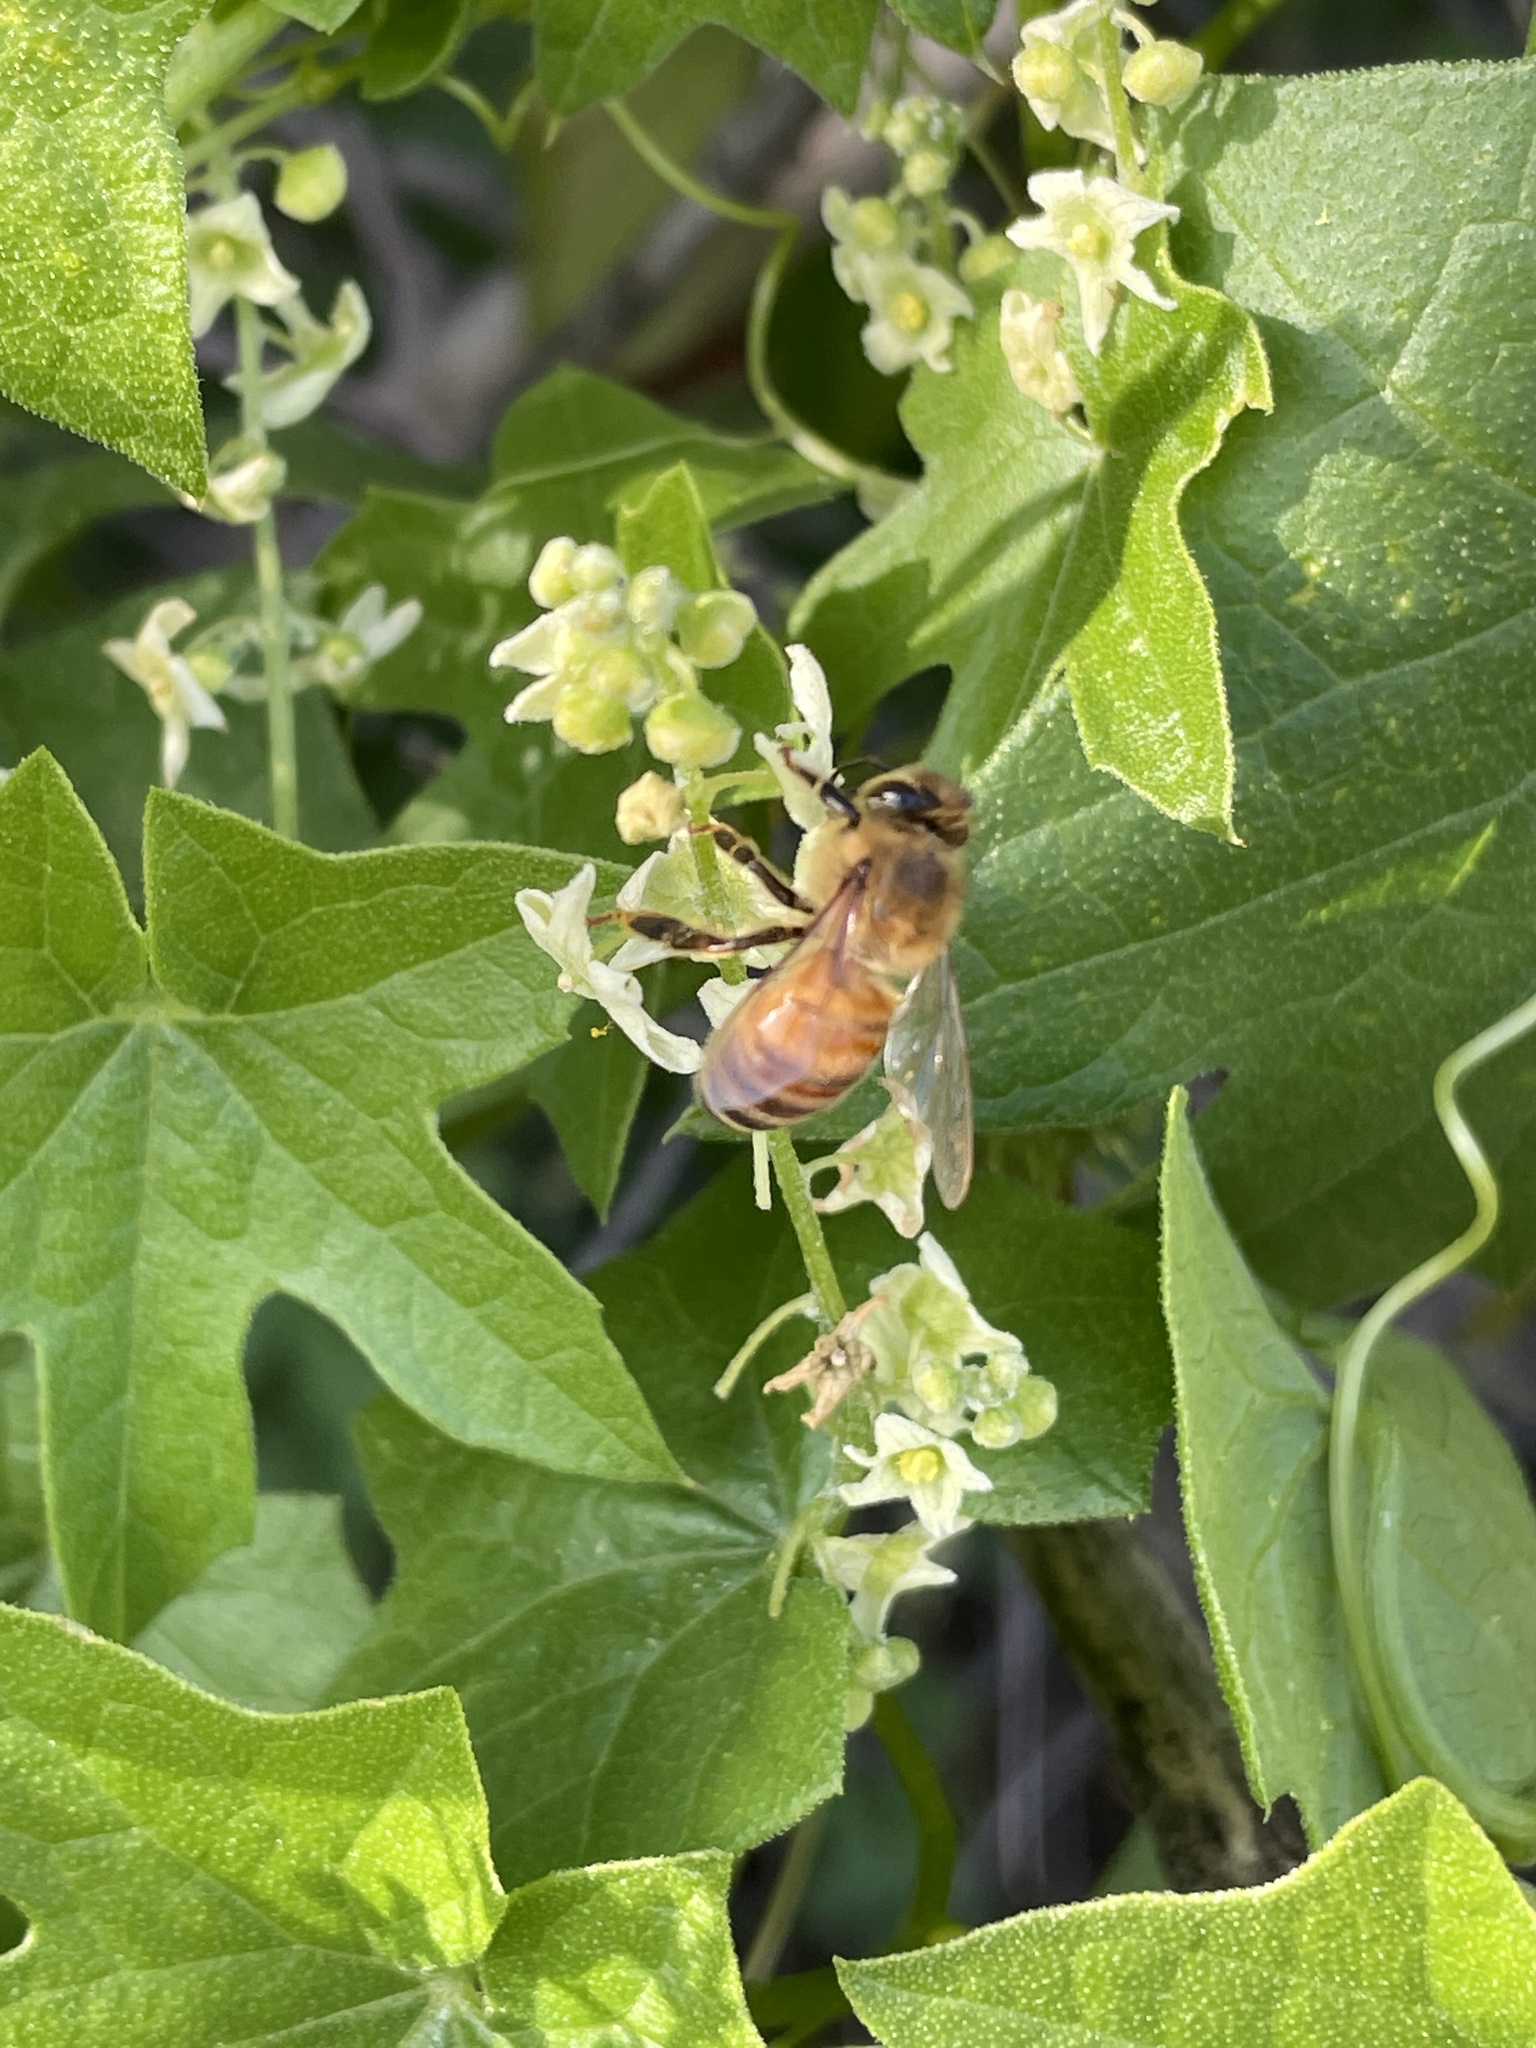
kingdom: Animalia
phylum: Arthropoda
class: Insecta
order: Hymenoptera
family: Apidae
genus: Apis
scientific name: Apis mellifera
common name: Honey bee
